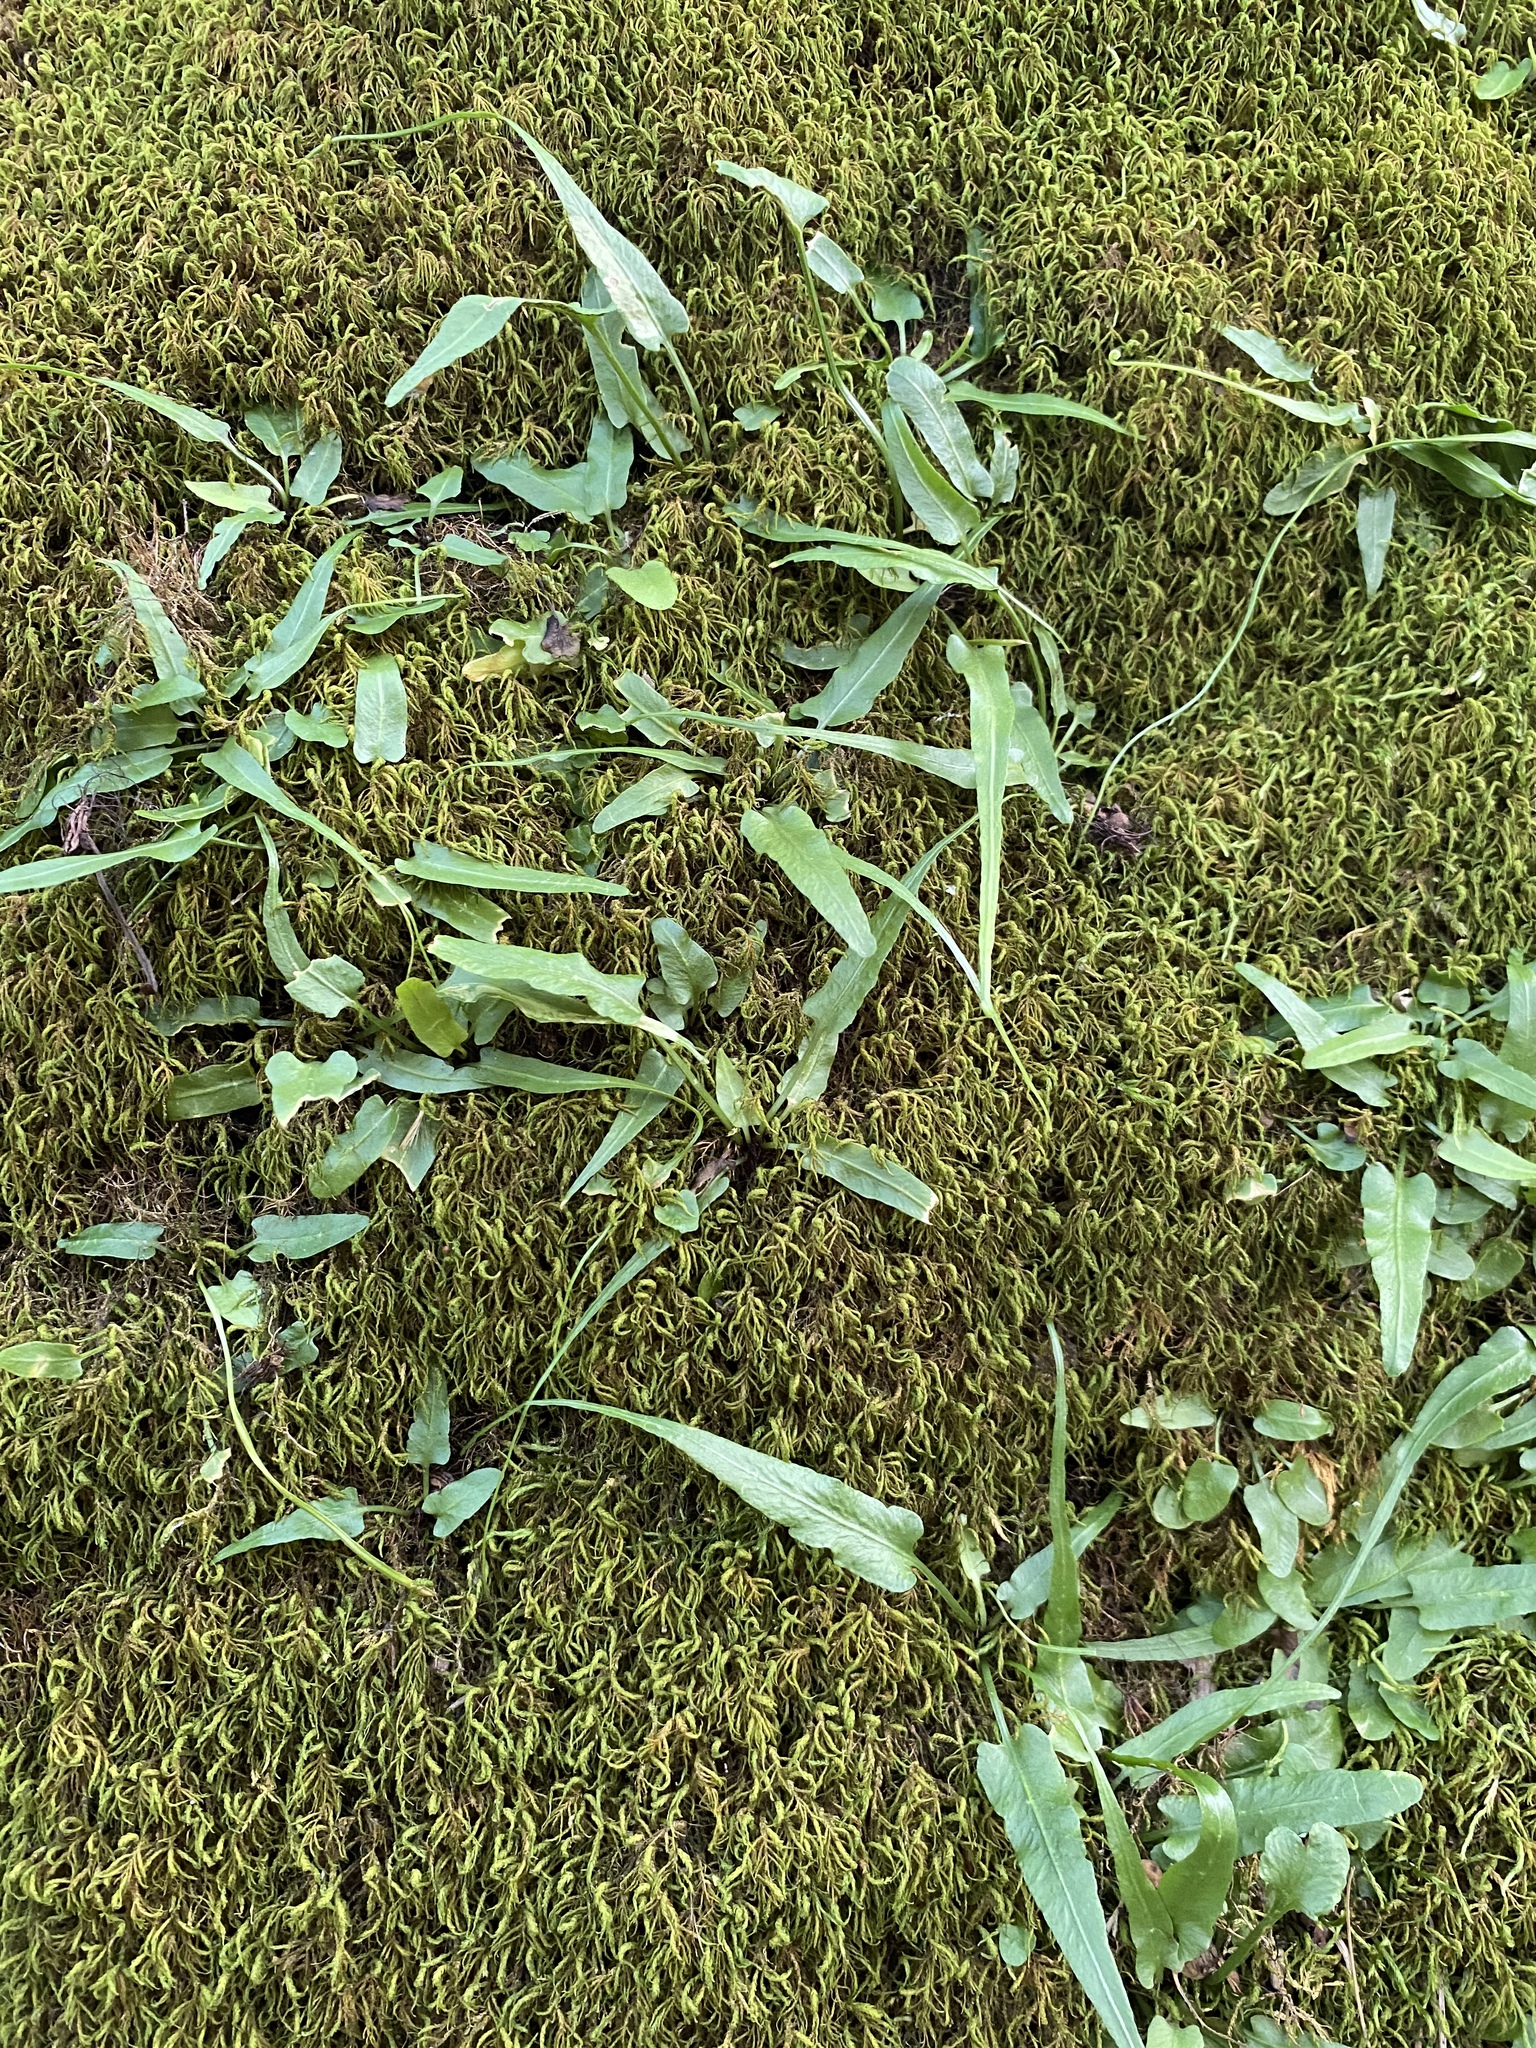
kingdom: Plantae
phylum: Tracheophyta
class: Polypodiopsida
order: Polypodiales
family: Aspleniaceae
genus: Asplenium
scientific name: Asplenium rhizophyllum
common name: Walking fern
